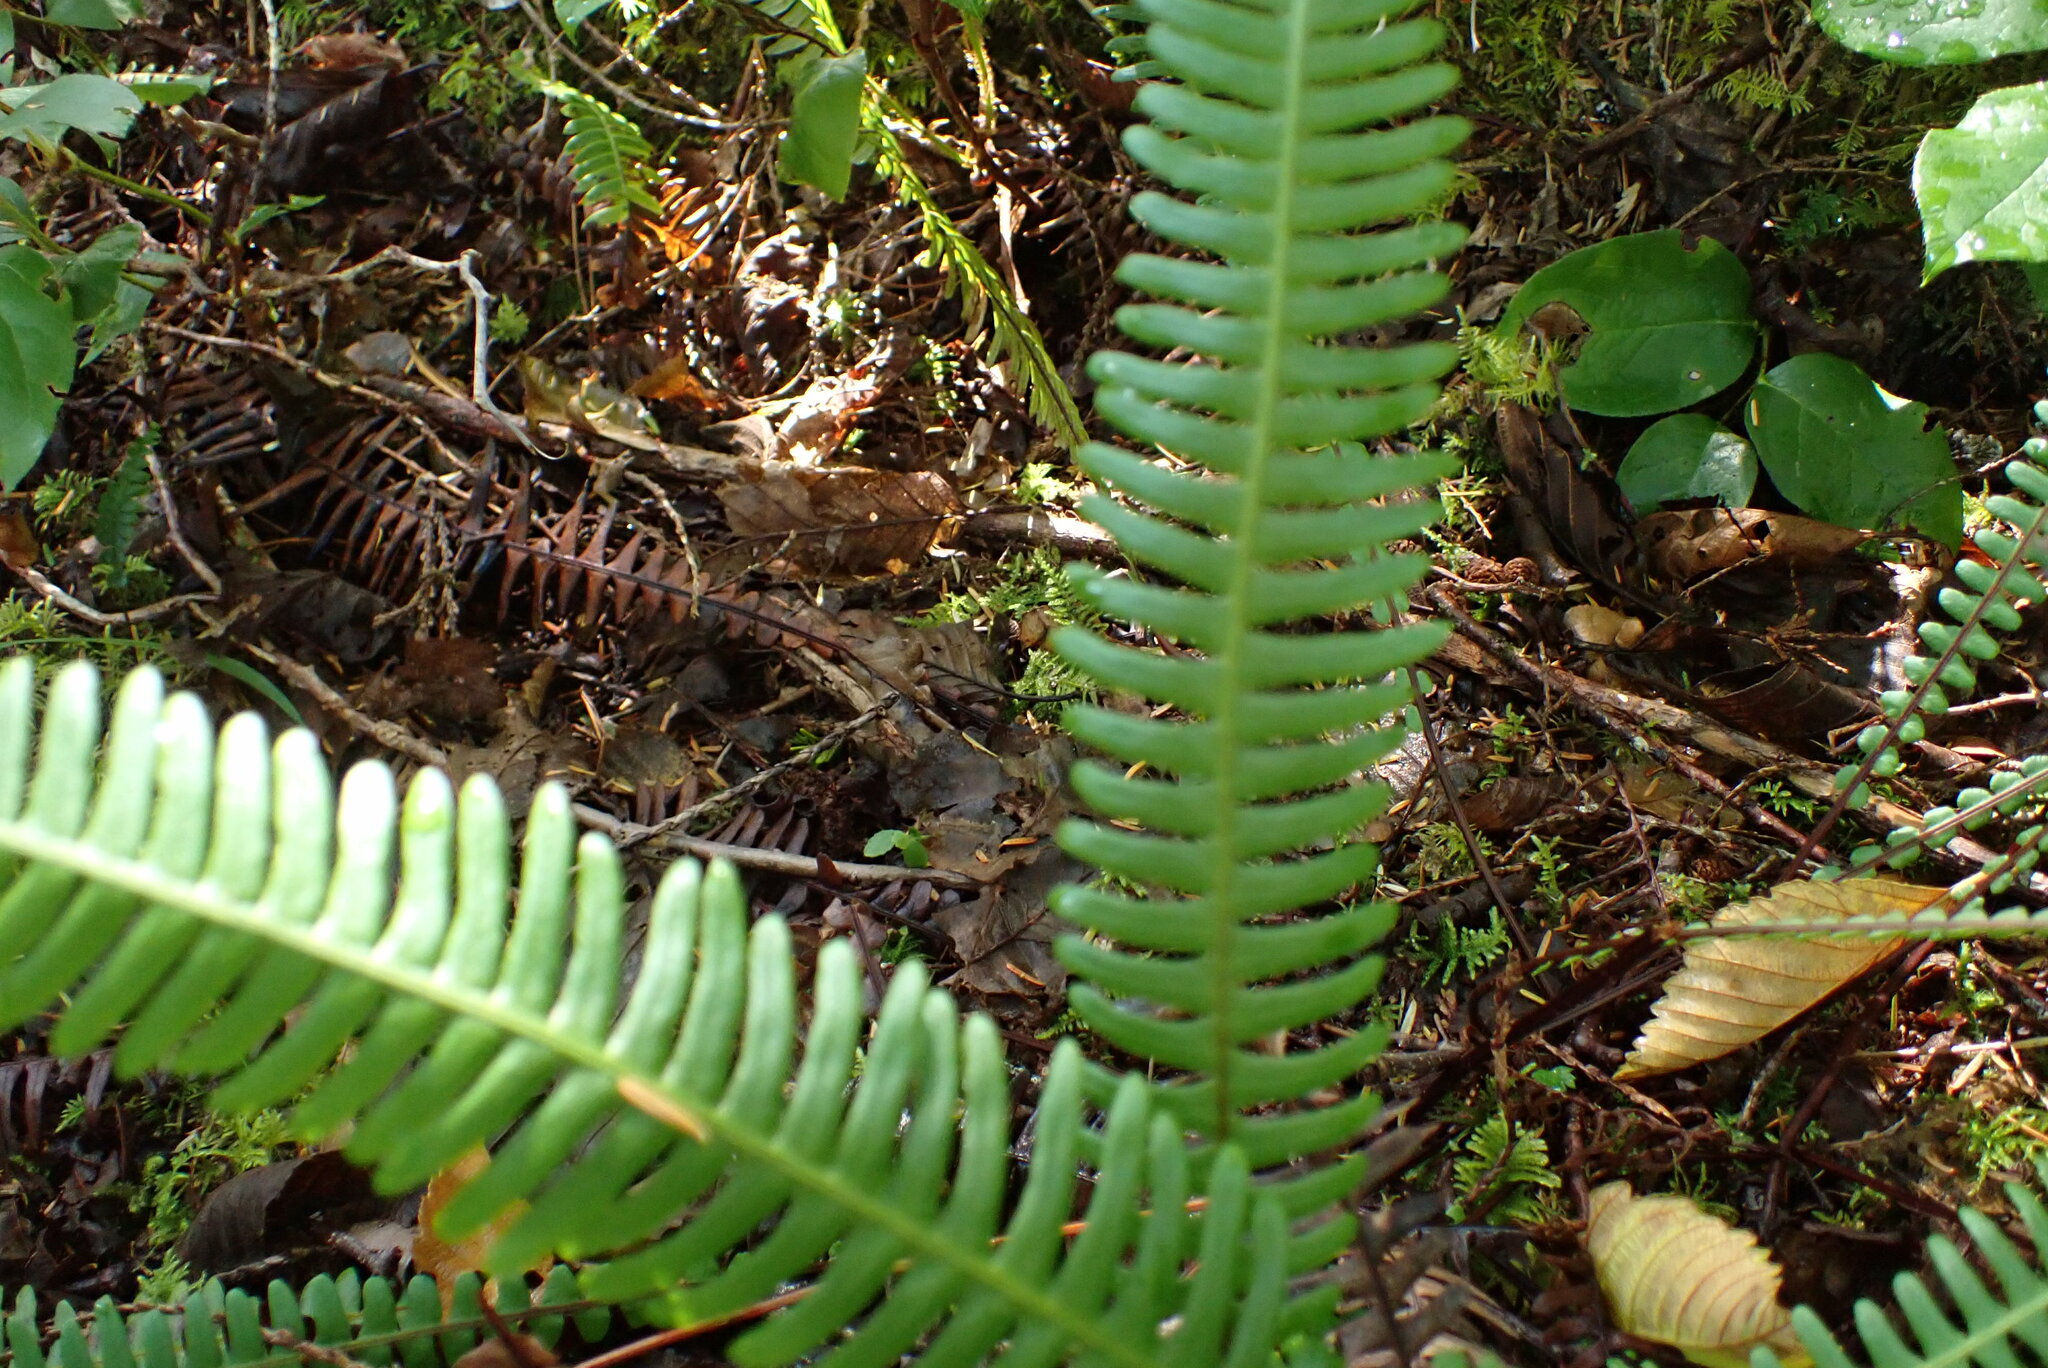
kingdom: Plantae
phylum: Tracheophyta
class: Polypodiopsida
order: Polypodiales
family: Blechnaceae
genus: Struthiopteris
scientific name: Struthiopteris spicant
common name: Deer fern
